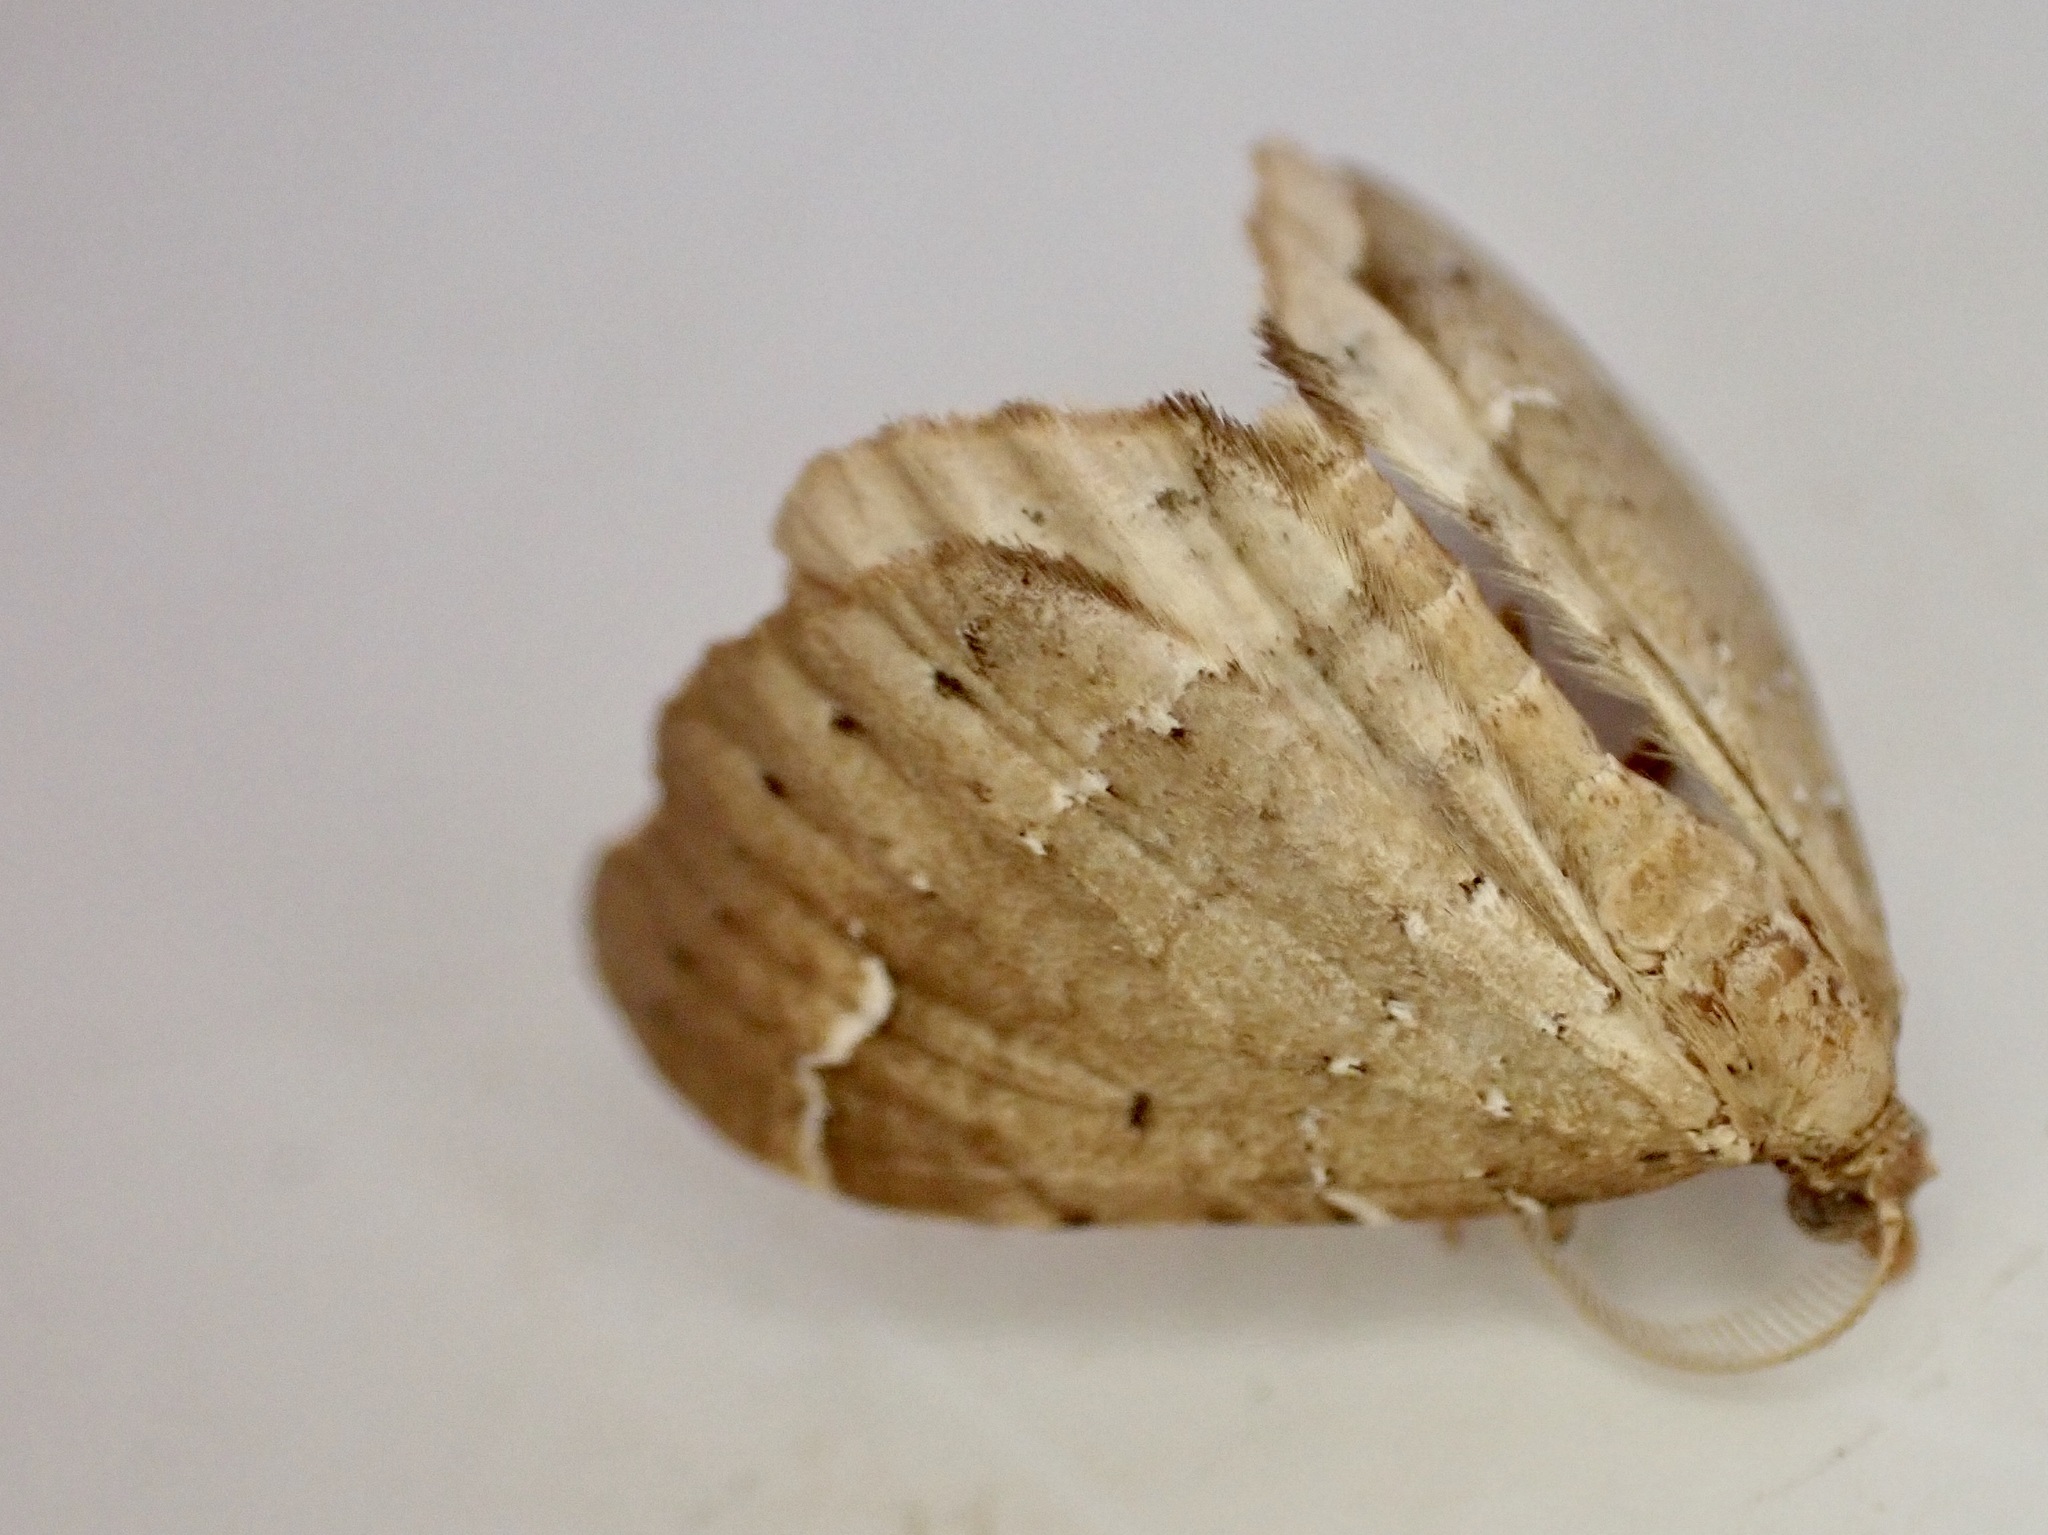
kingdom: Animalia
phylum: Arthropoda
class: Insecta
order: Lepidoptera
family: Geometridae
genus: Asaphodes
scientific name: Asaphodes camelias
